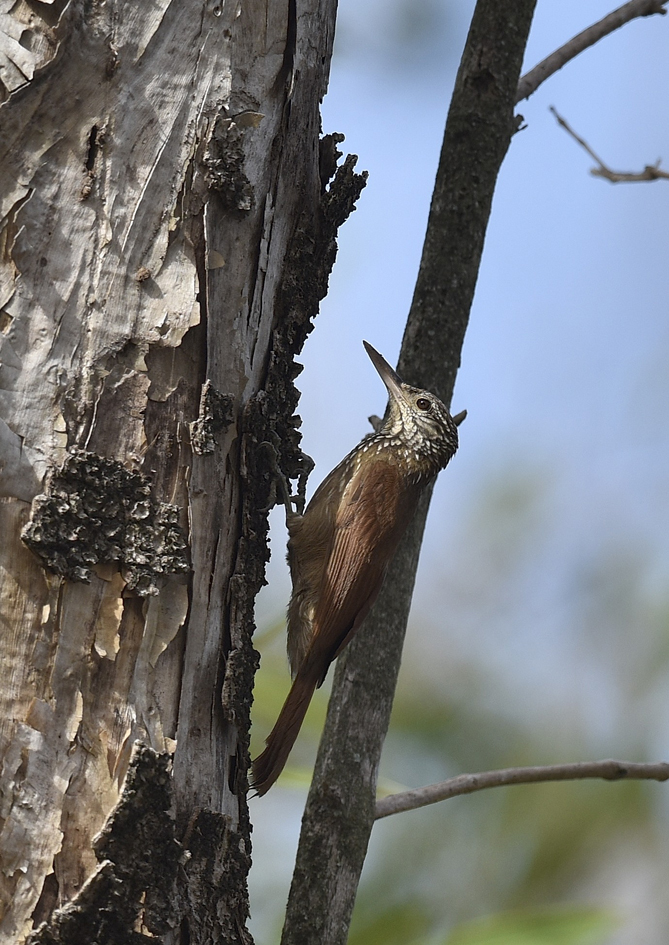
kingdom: Animalia
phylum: Chordata
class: Aves
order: Passeriformes
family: Furnariidae
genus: Xiphorhynchus
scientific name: Xiphorhynchus picus
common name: Straight-billed woodcreeper
